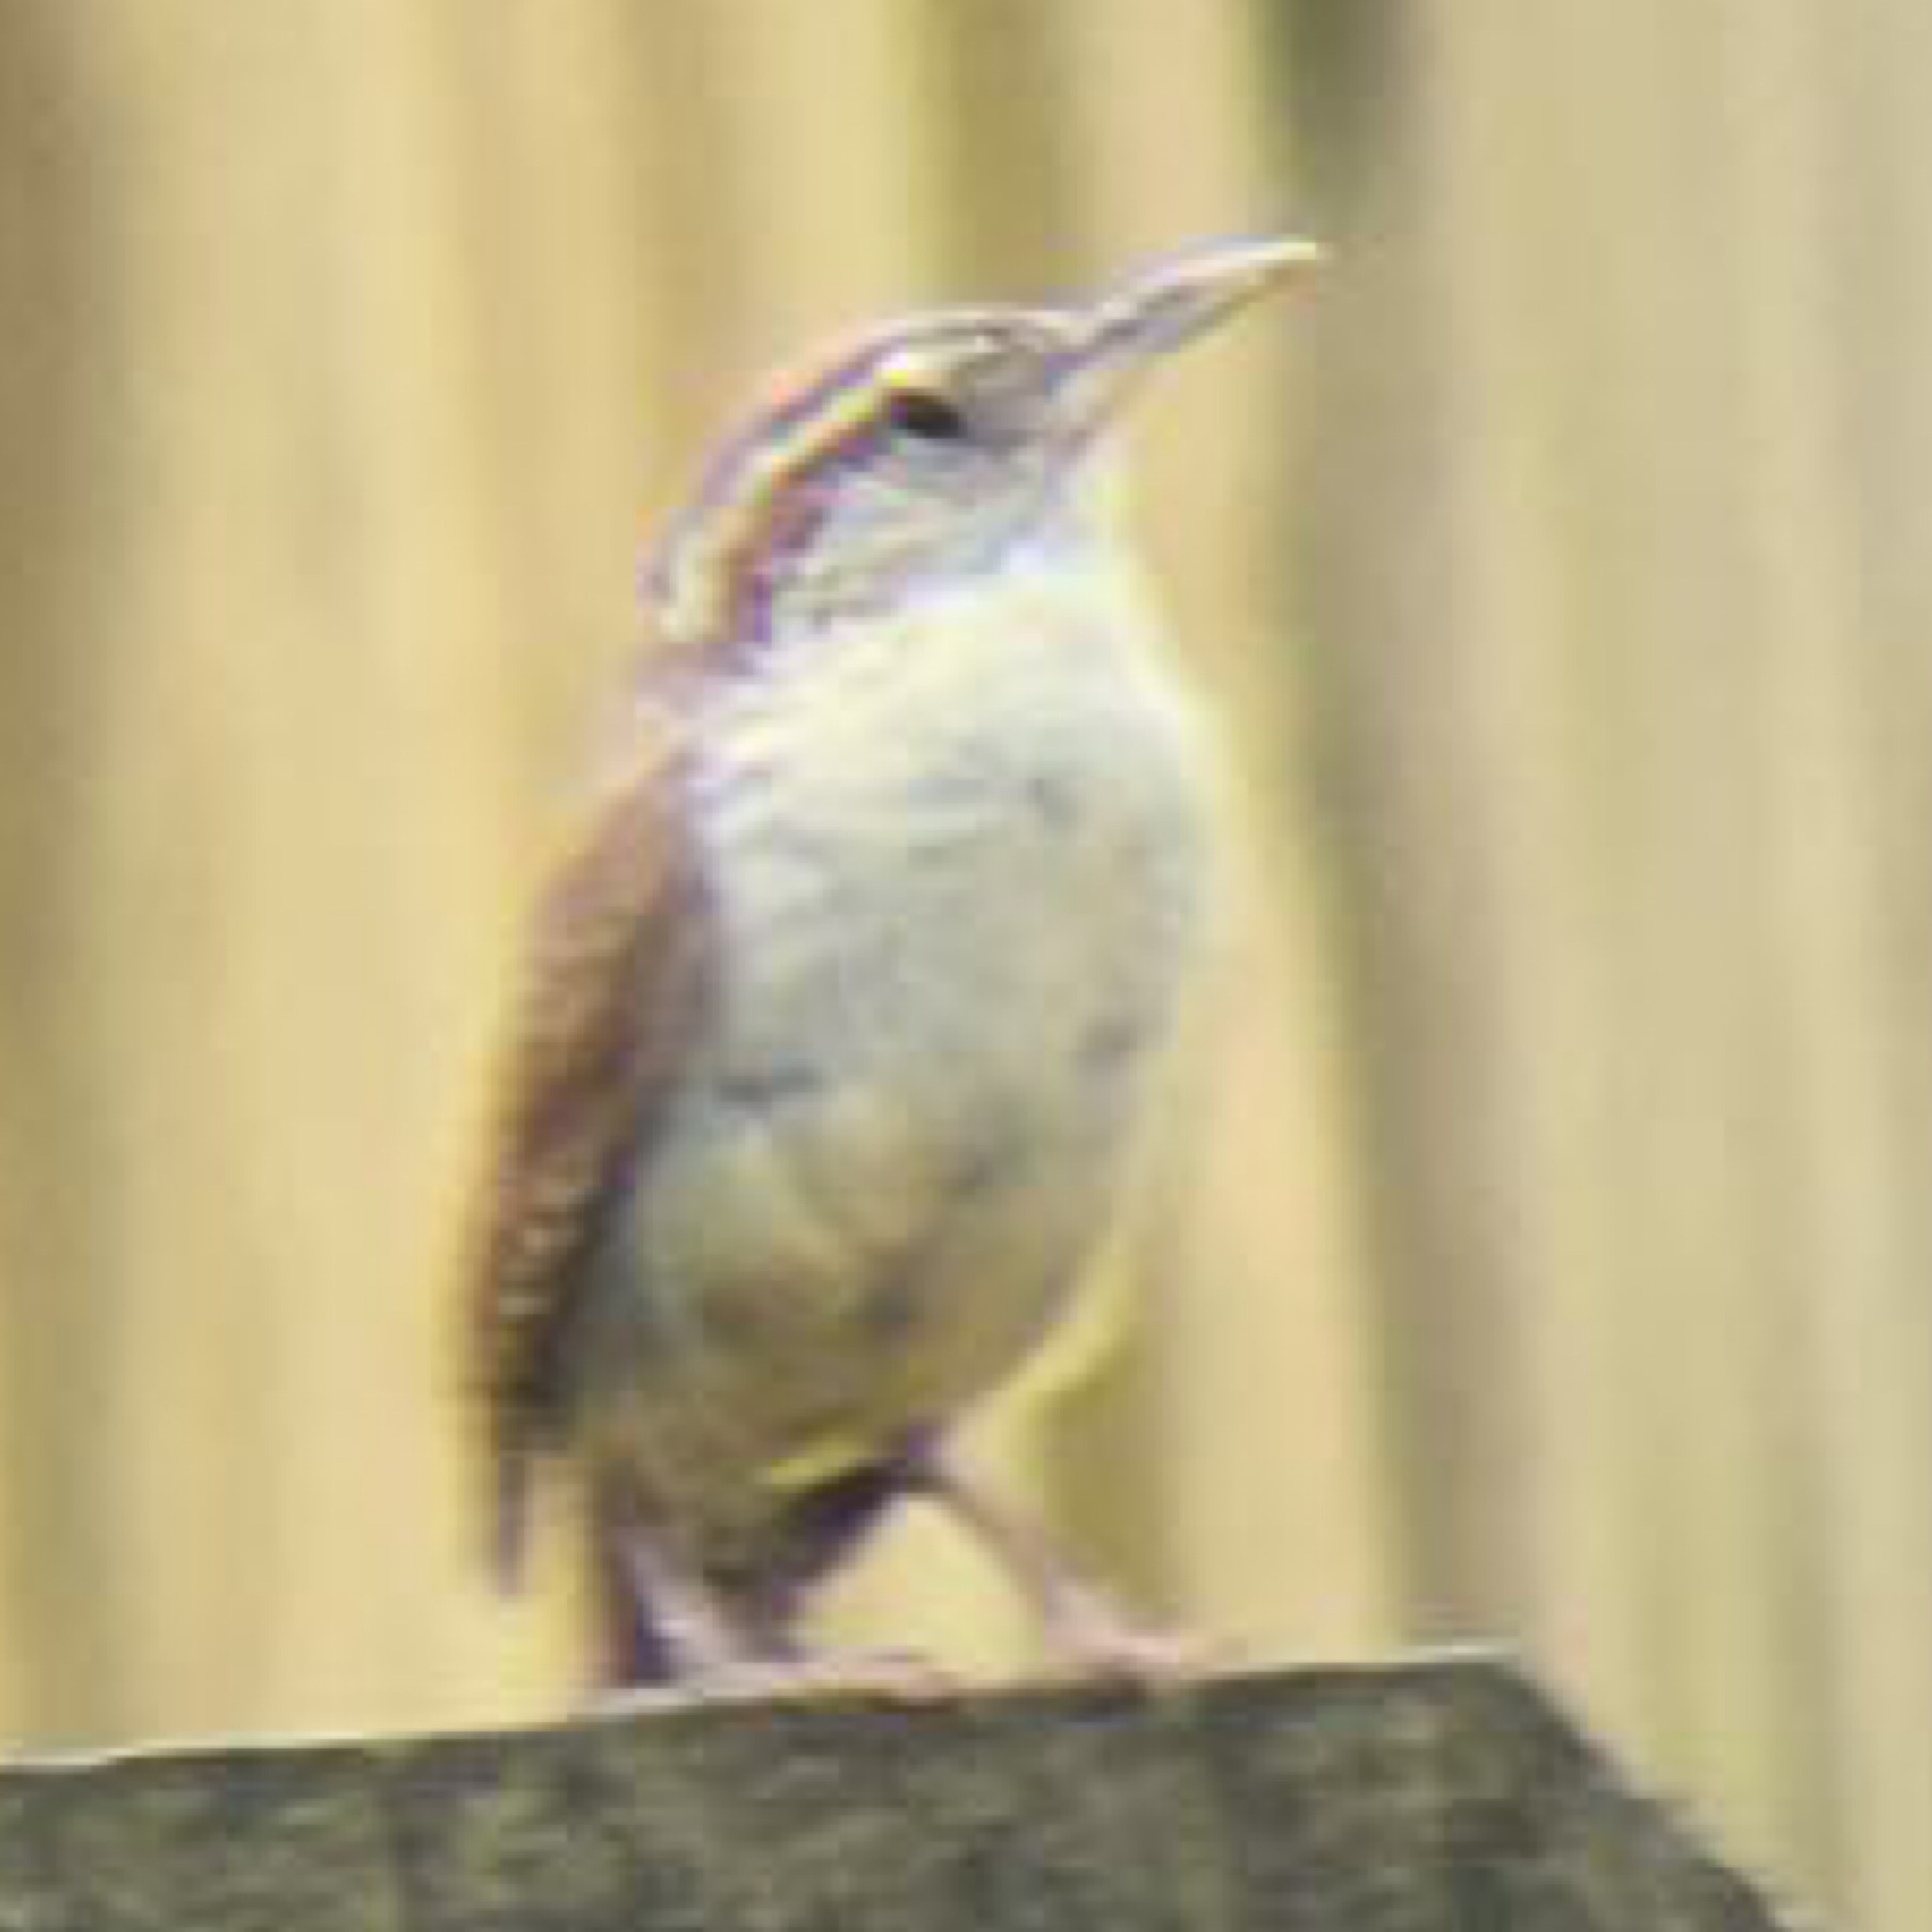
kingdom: Animalia
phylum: Chordata
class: Aves
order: Passeriformes
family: Troglodytidae
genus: Thryothorus
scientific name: Thryothorus ludovicianus
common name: Carolina wren
